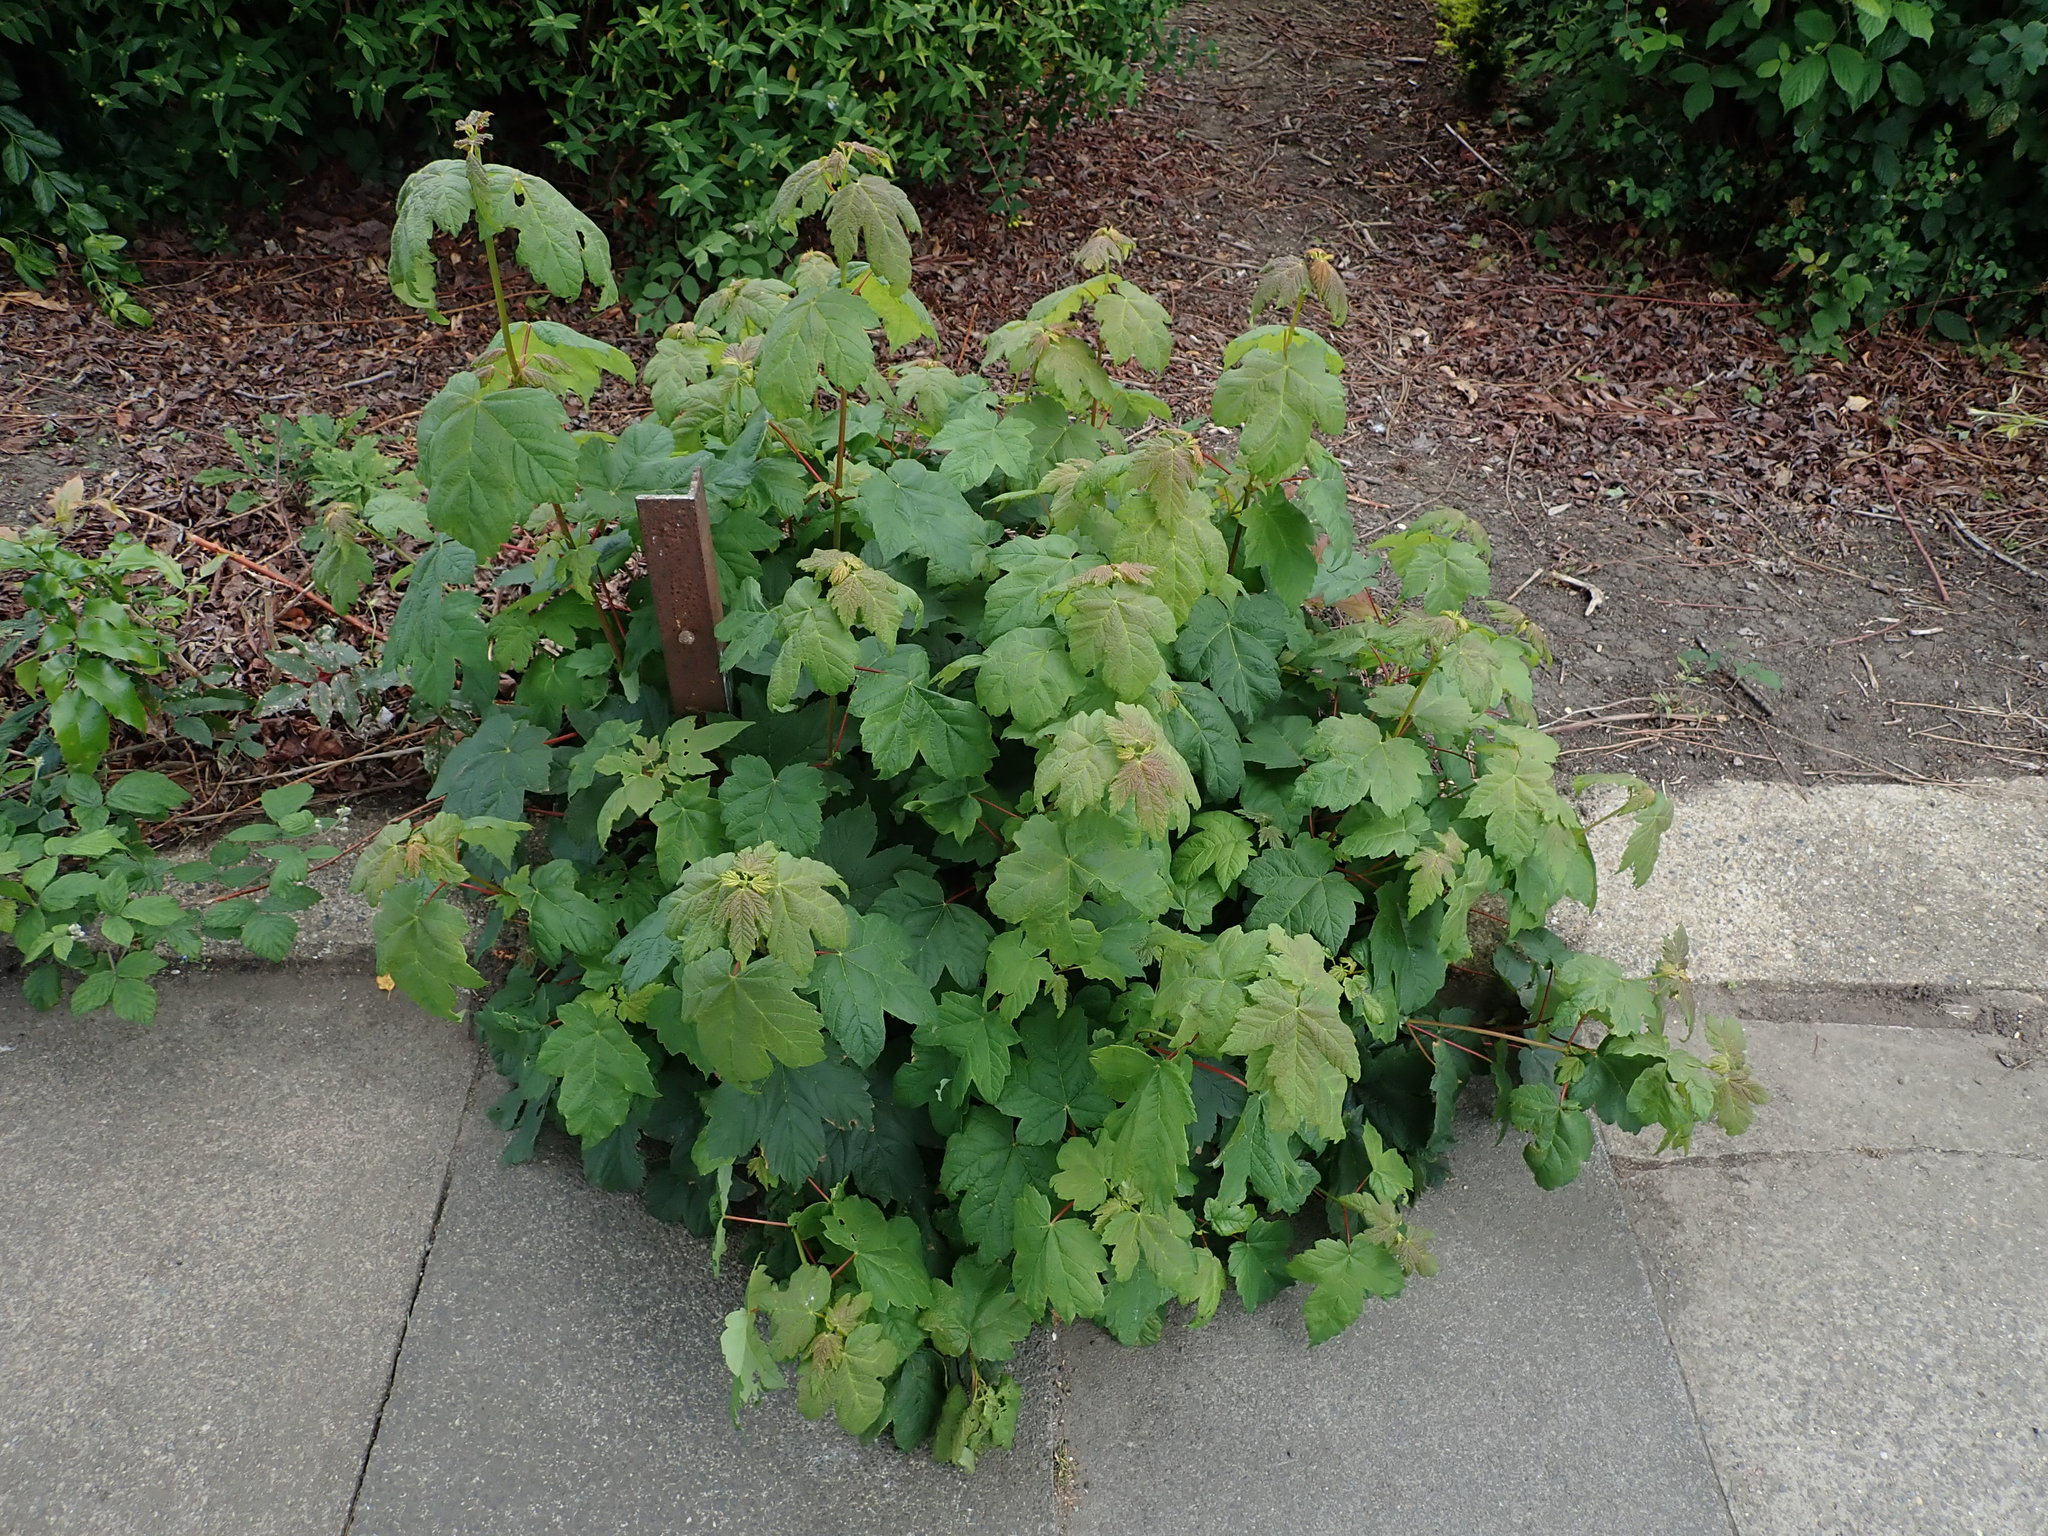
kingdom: Plantae
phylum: Tracheophyta
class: Magnoliopsida
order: Sapindales
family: Sapindaceae
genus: Acer
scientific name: Acer pseudoplatanus
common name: Sycamore
